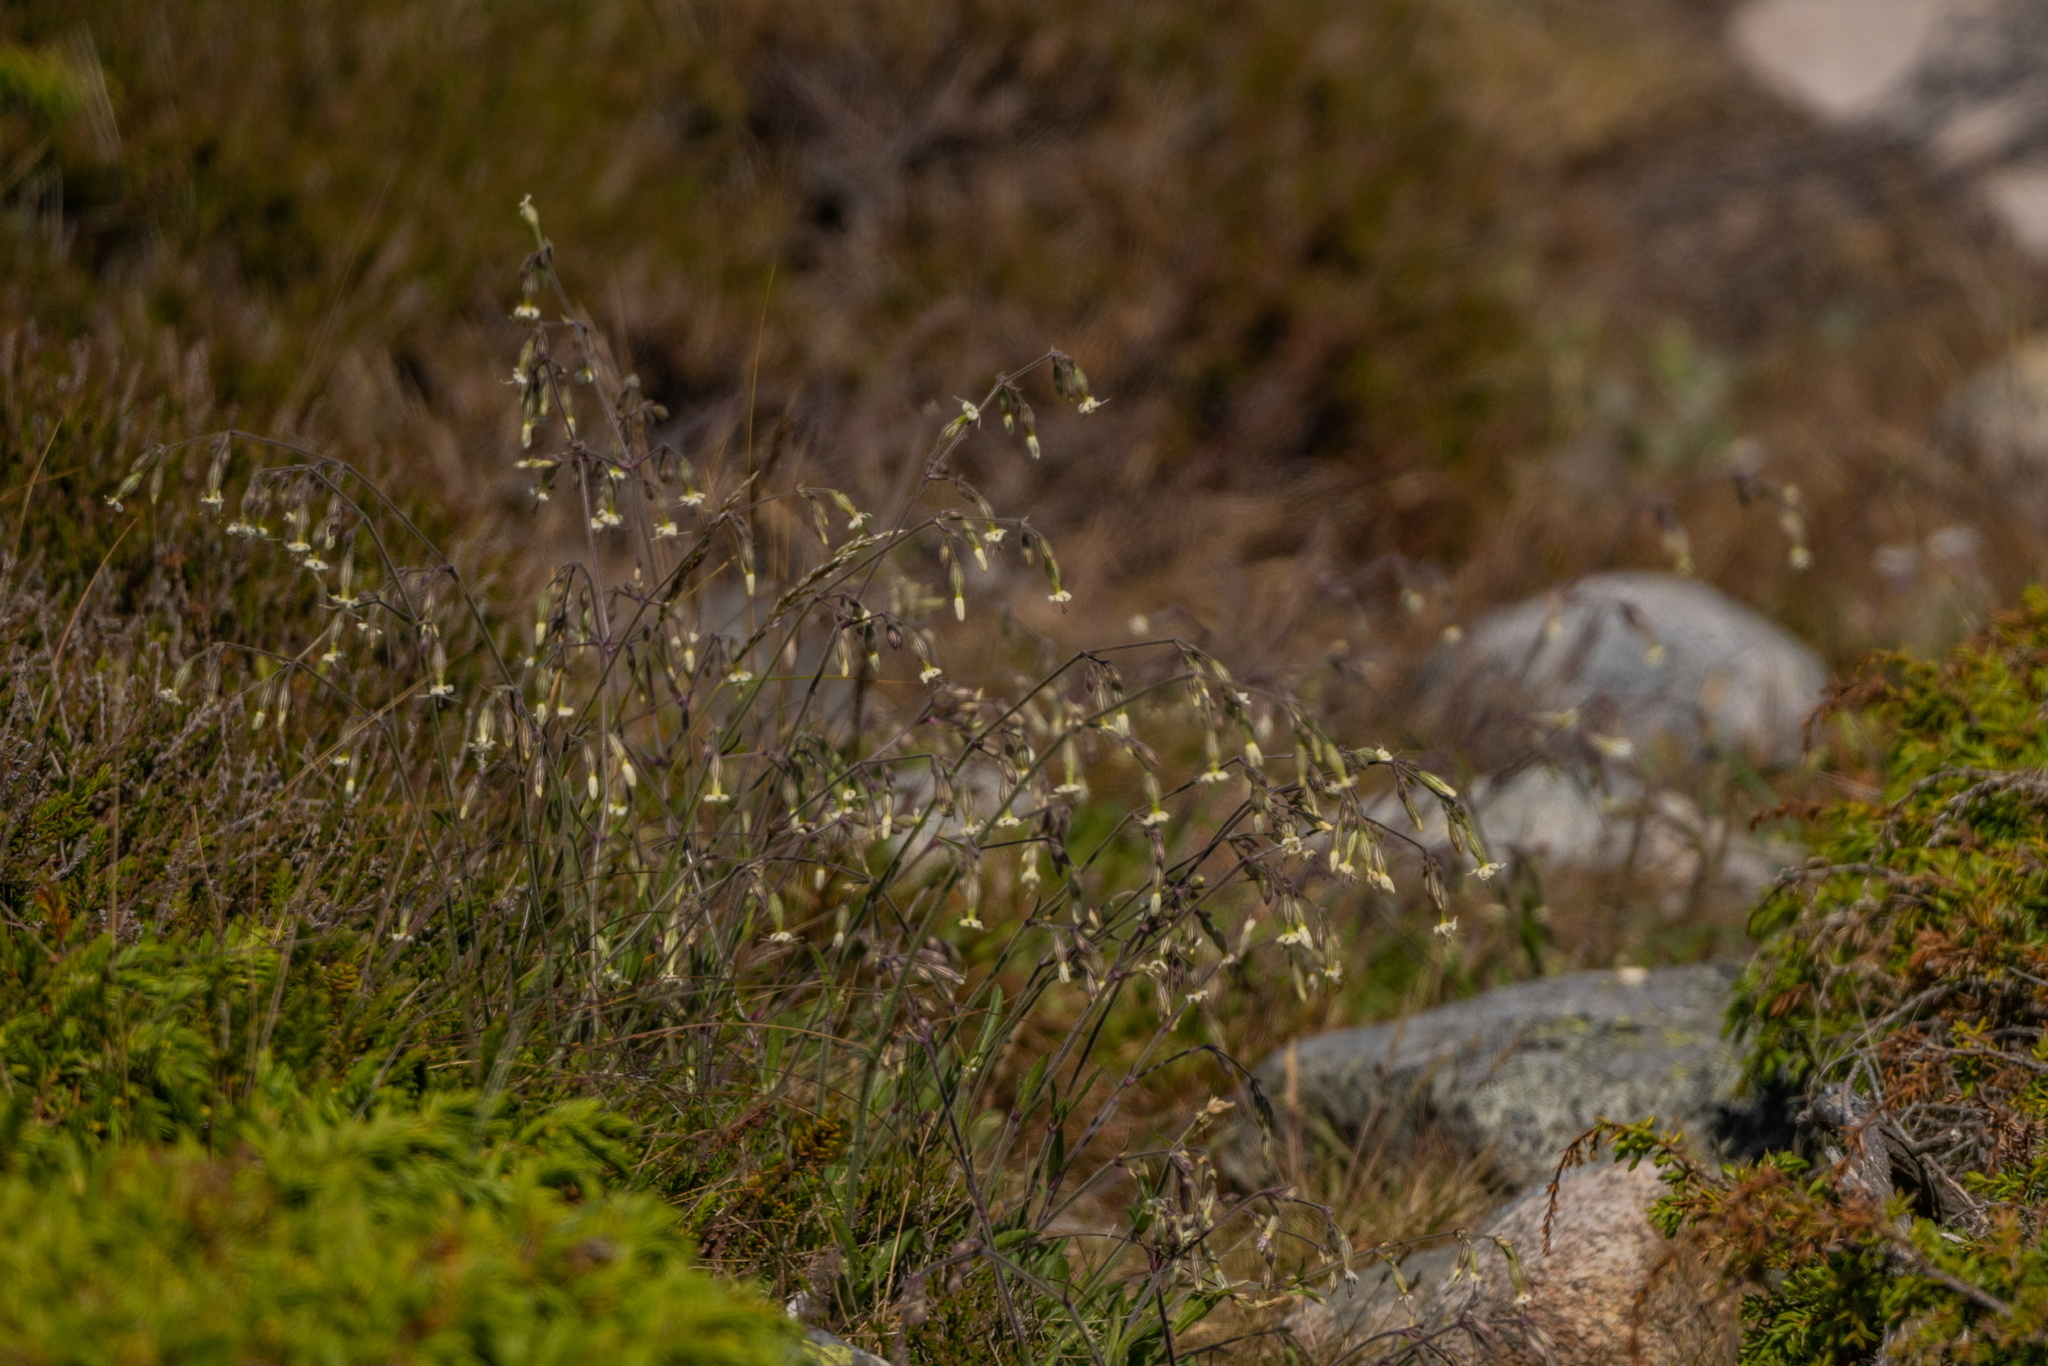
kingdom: Plantae
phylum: Tracheophyta
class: Magnoliopsida
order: Caryophyllales
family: Caryophyllaceae
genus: Silene
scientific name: Silene nutans
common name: Nottingham catchfly
